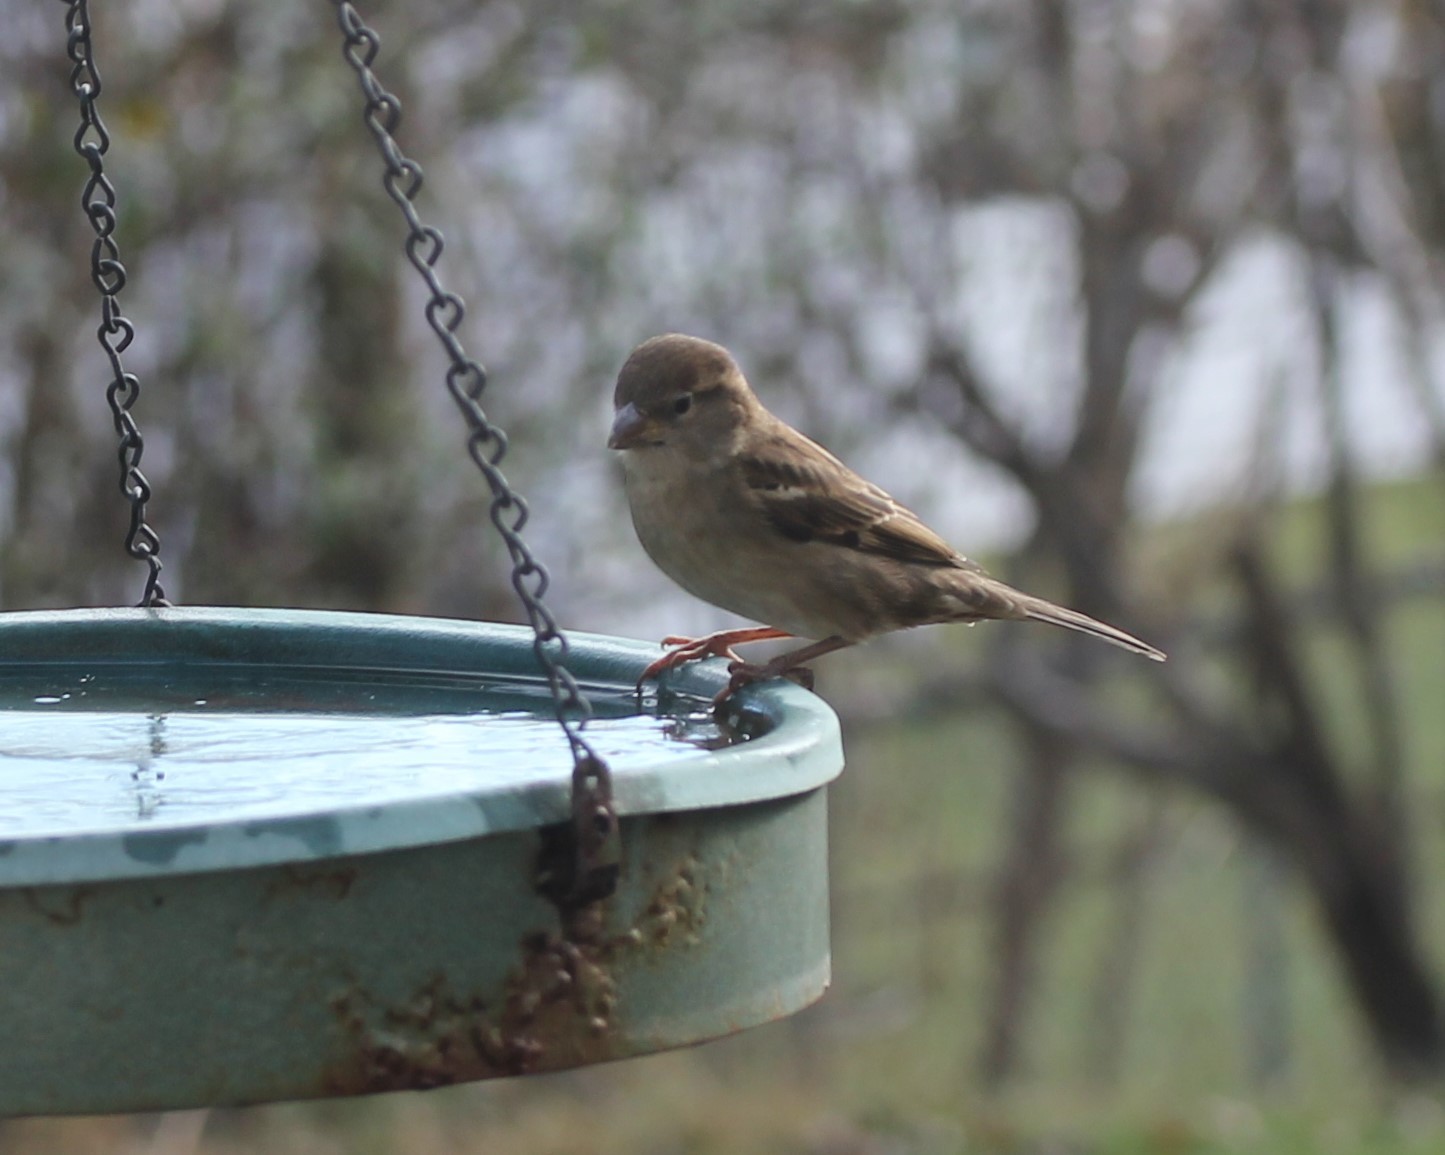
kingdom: Animalia
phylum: Chordata
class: Aves
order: Passeriformes
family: Passeridae
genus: Passer
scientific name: Passer domesticus
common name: House sparrow
